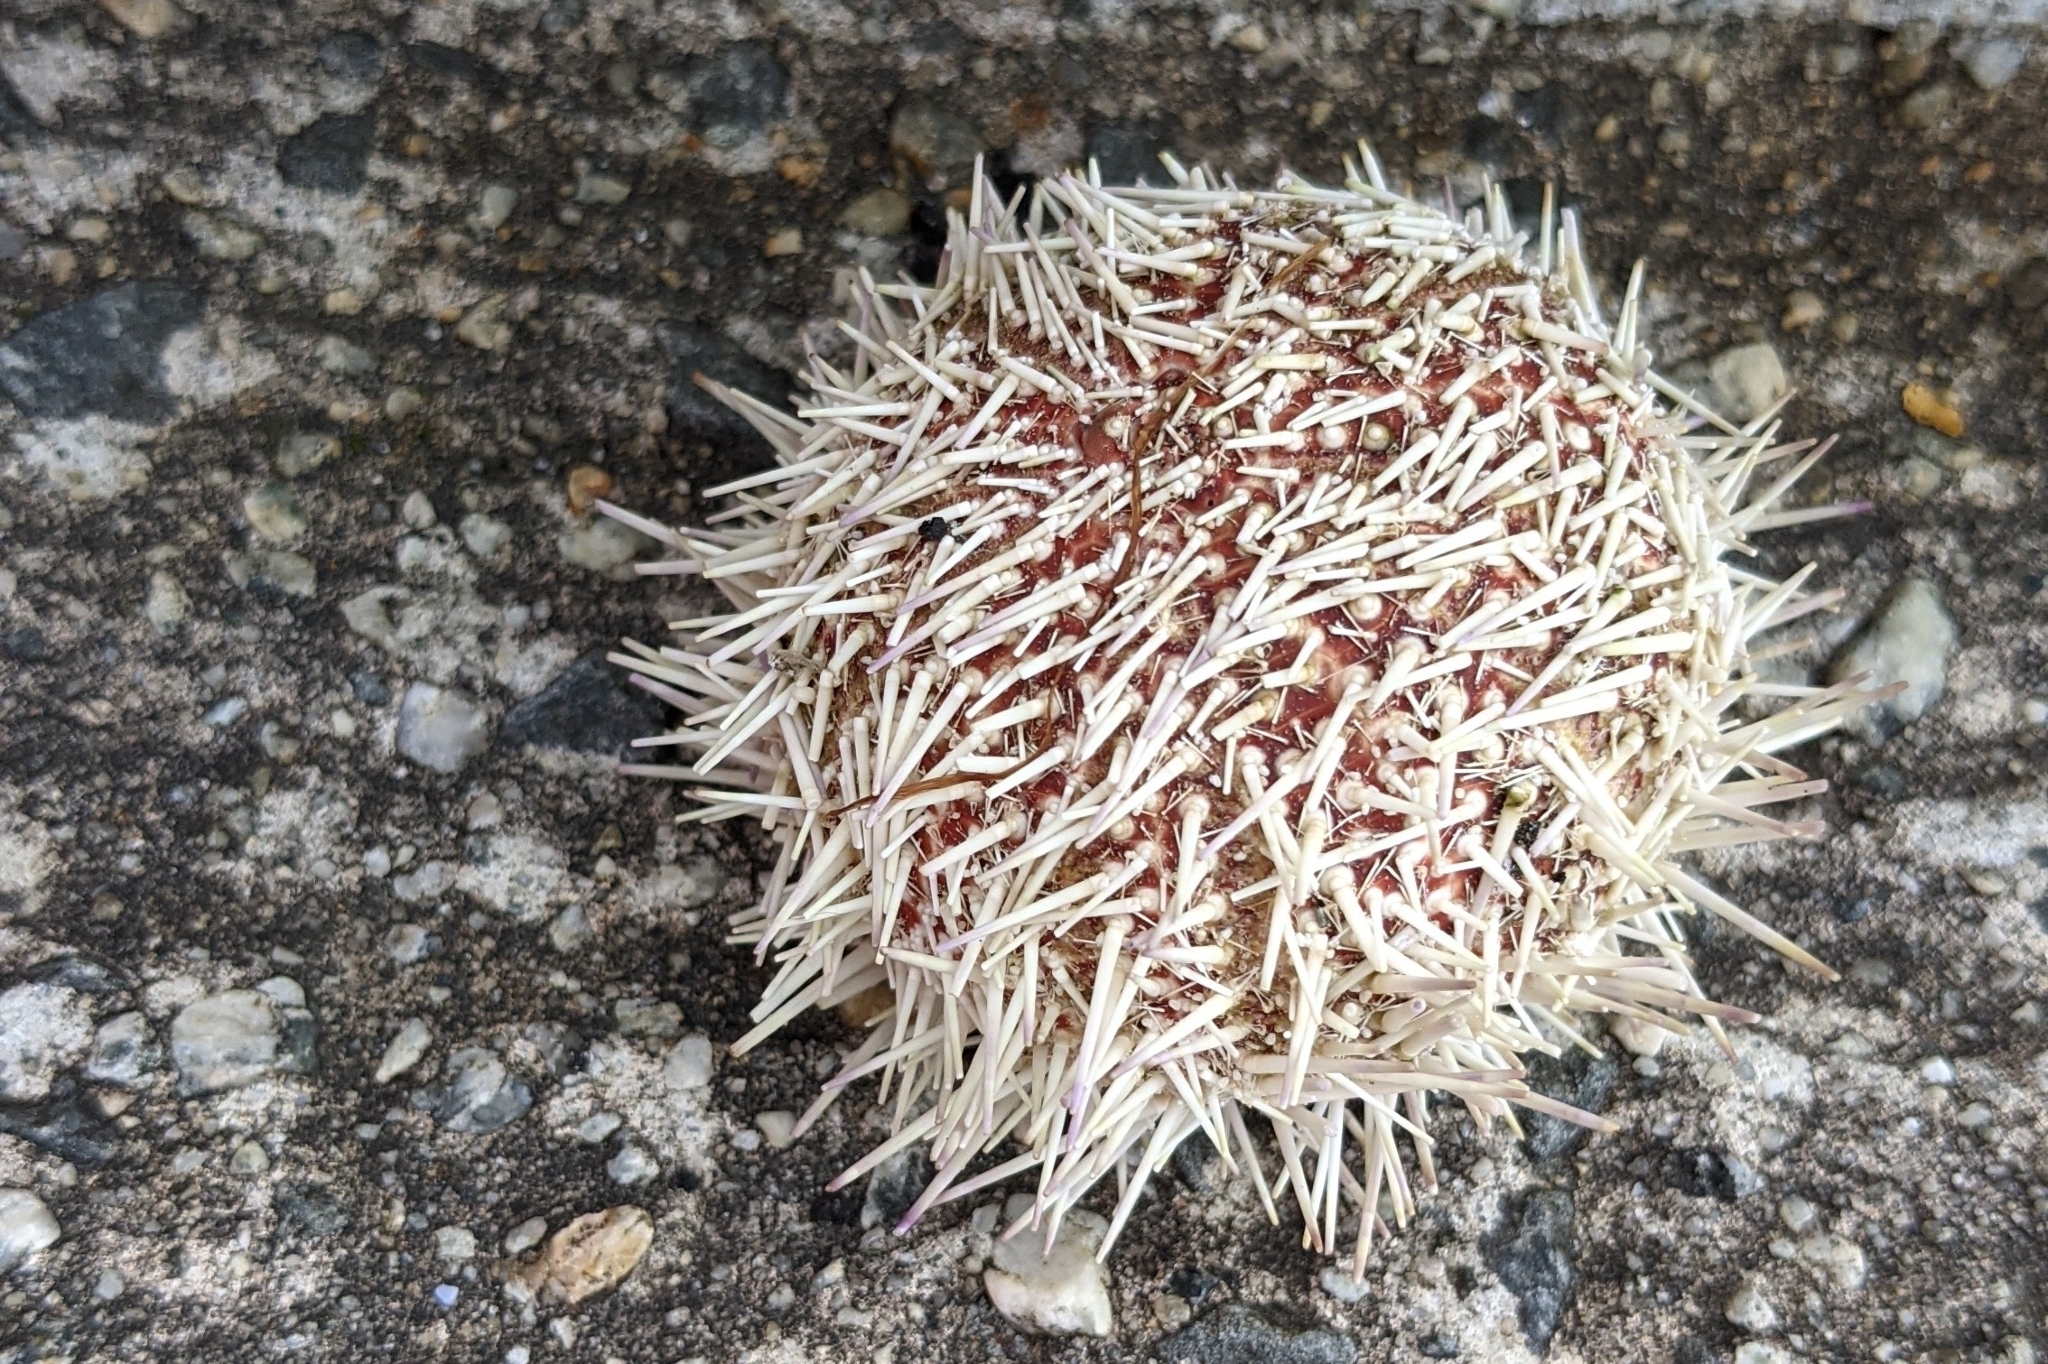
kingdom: Animalia
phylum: Echinodermata
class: Echinoidea
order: Camarodonta
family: Echinidae
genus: Echinus
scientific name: Echinus esculentus
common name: Edible sea urchin
